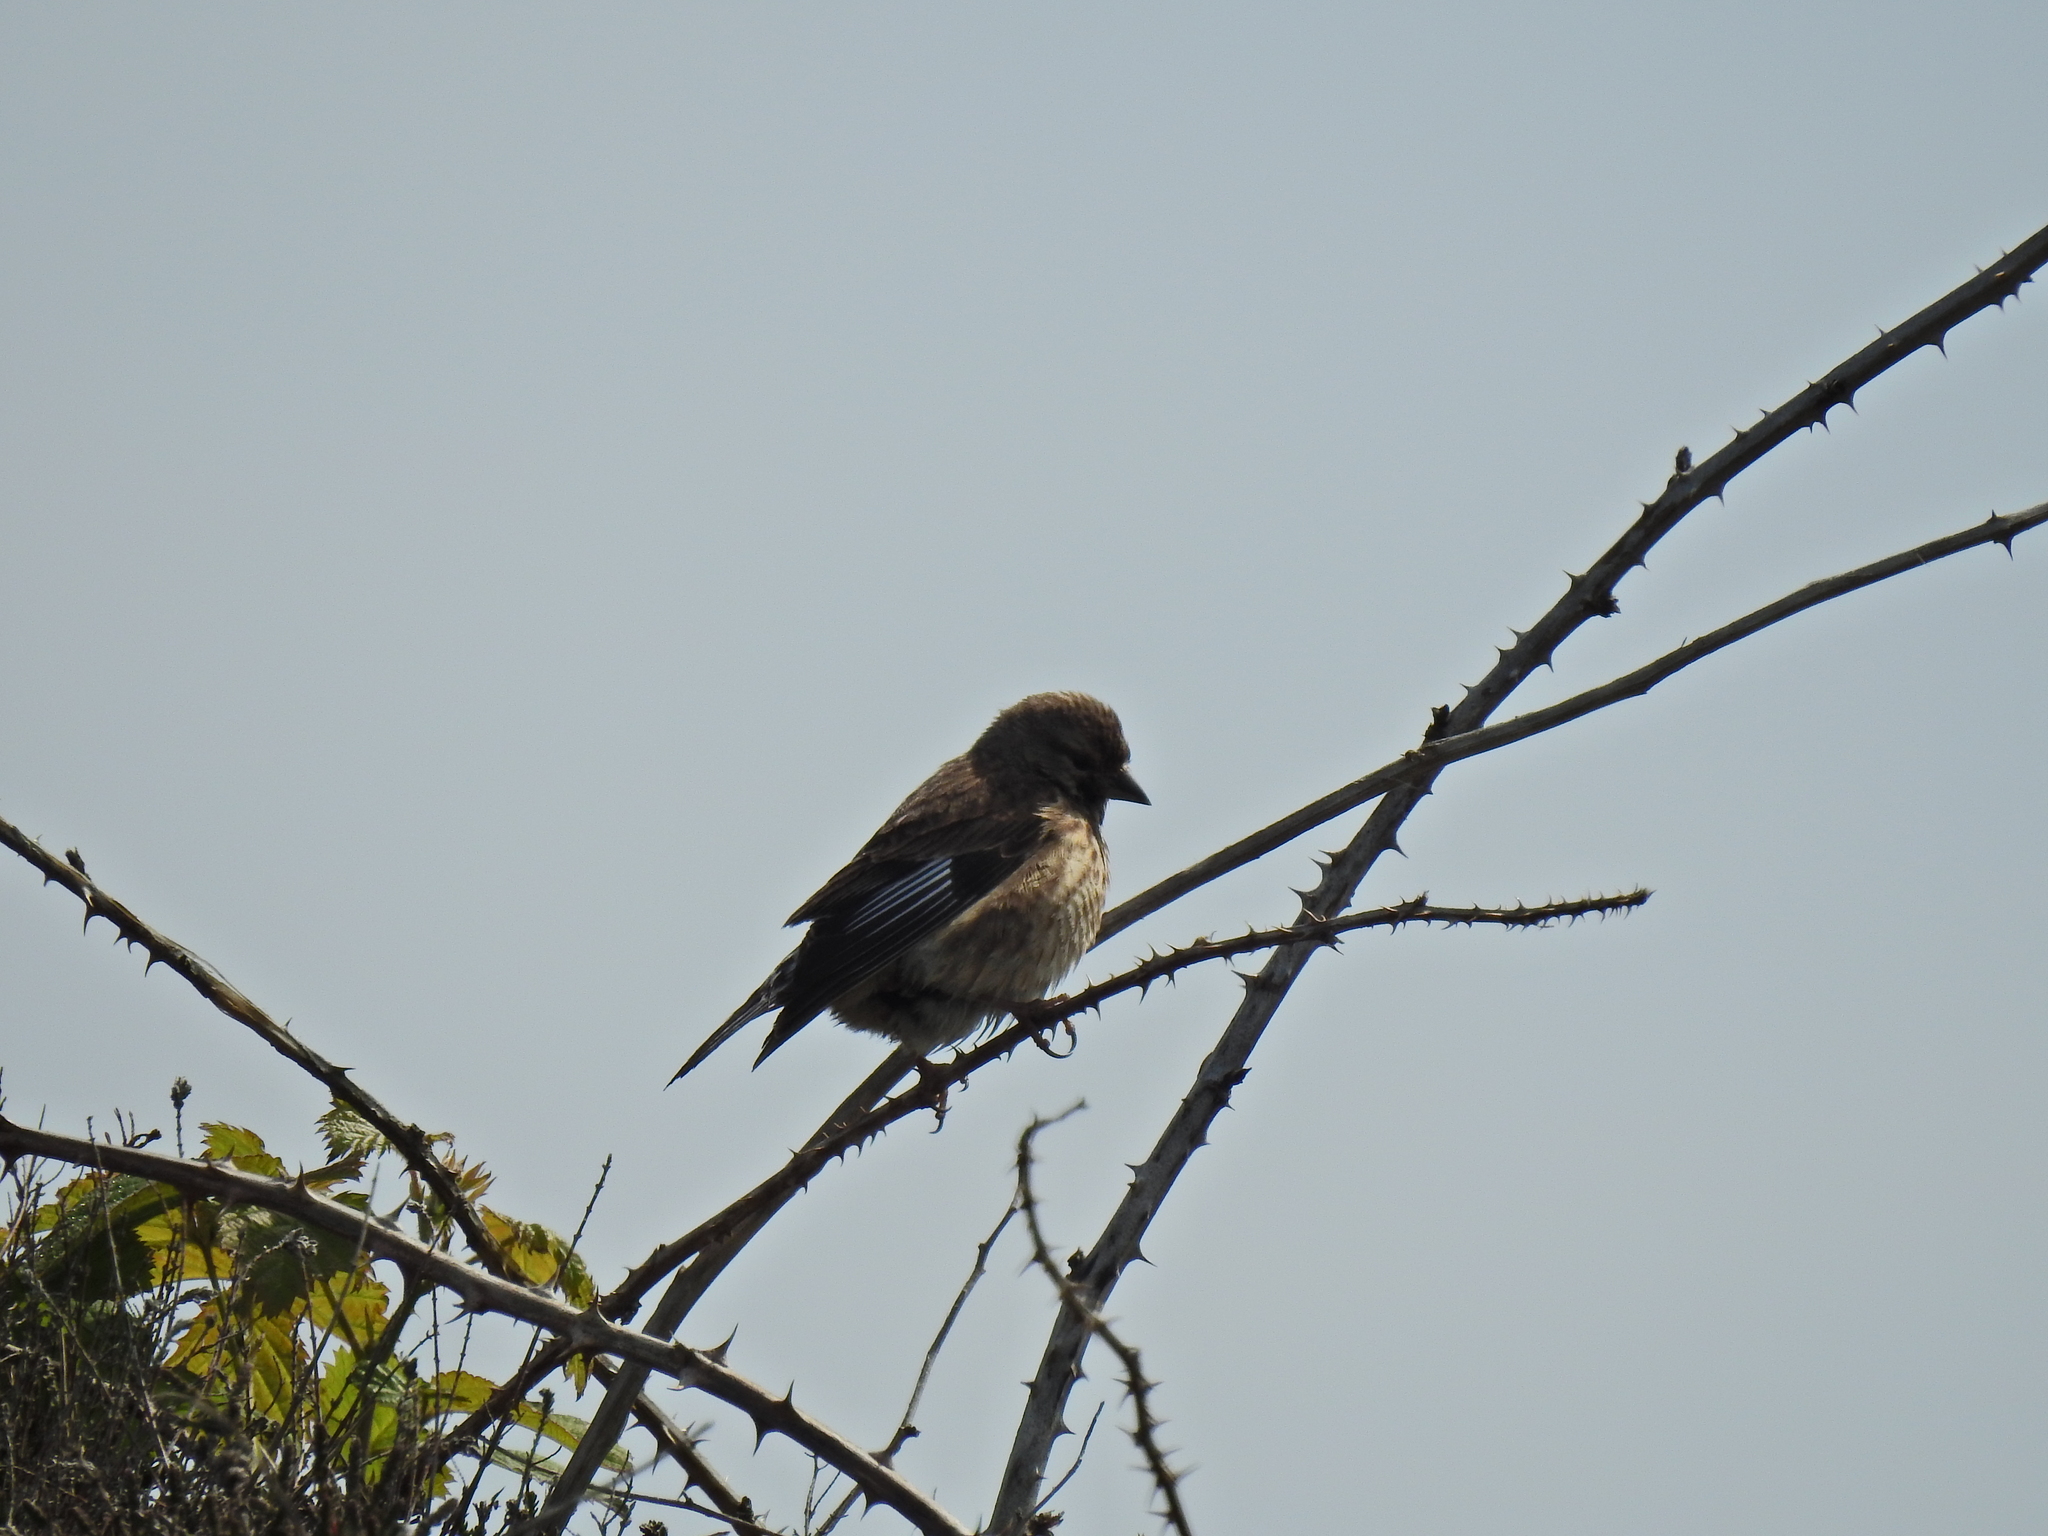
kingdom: Animalia
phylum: Chordata
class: Aves
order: Passeriformes
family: Fringillidae
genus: Linaria
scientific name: Linaria cannabina
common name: Common linnet
